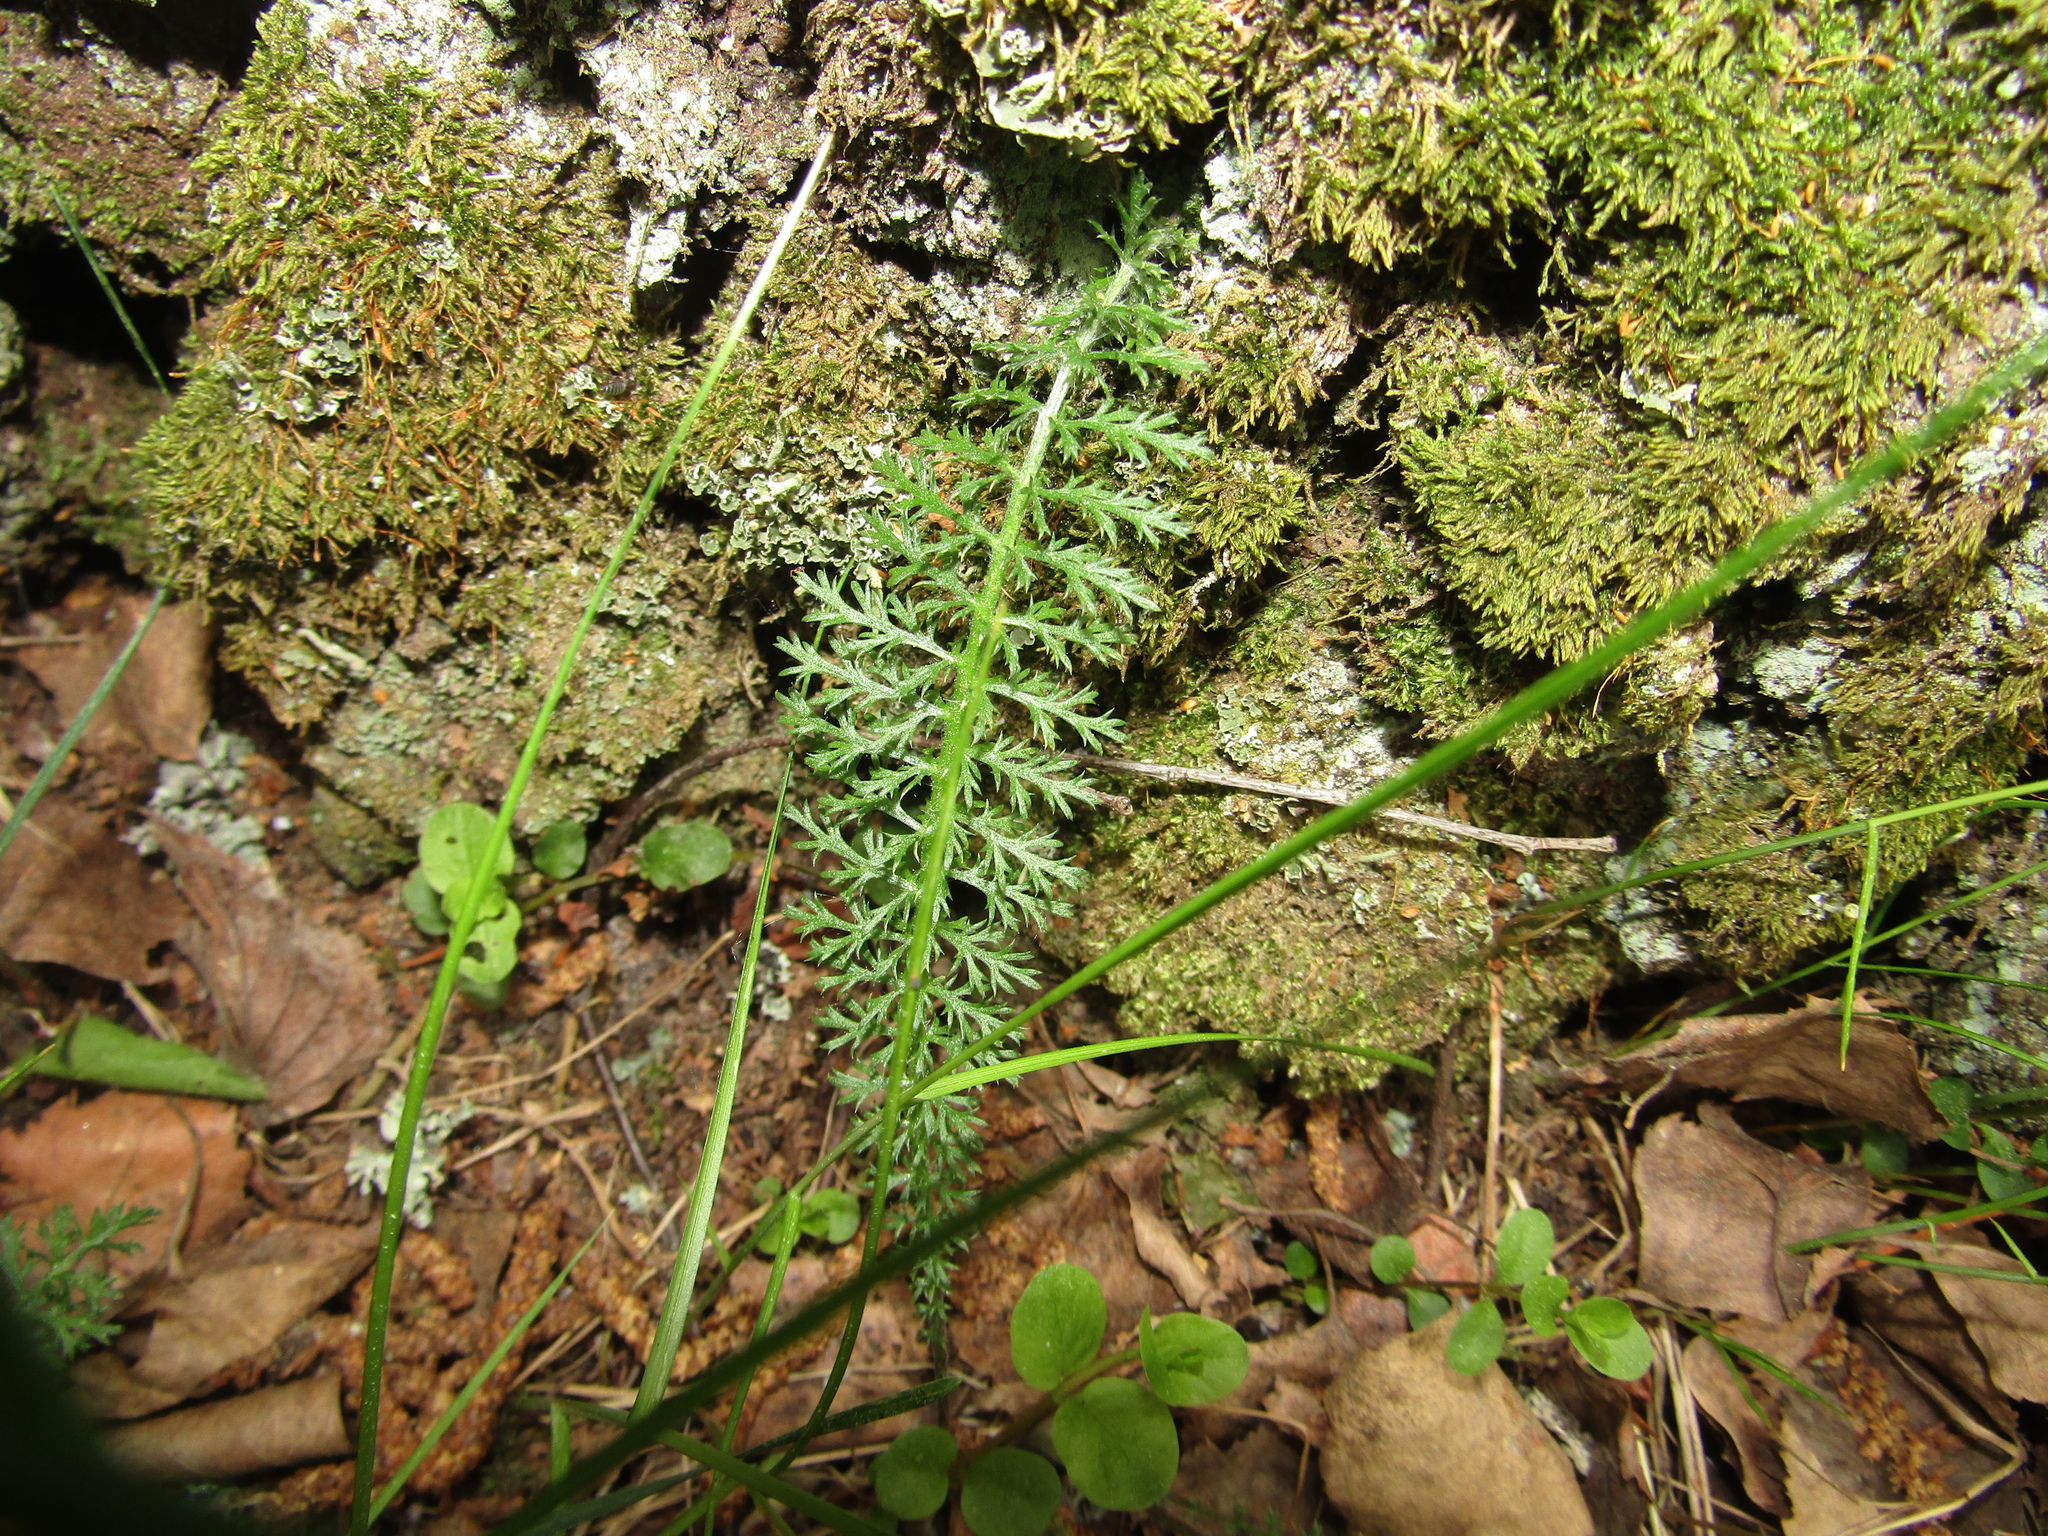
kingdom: Plantae
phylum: Tracheophyta
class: Magnoliopsida
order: Asterales
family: Asteraceae
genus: Achillea
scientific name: Achillea millefolium
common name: Yarrow
